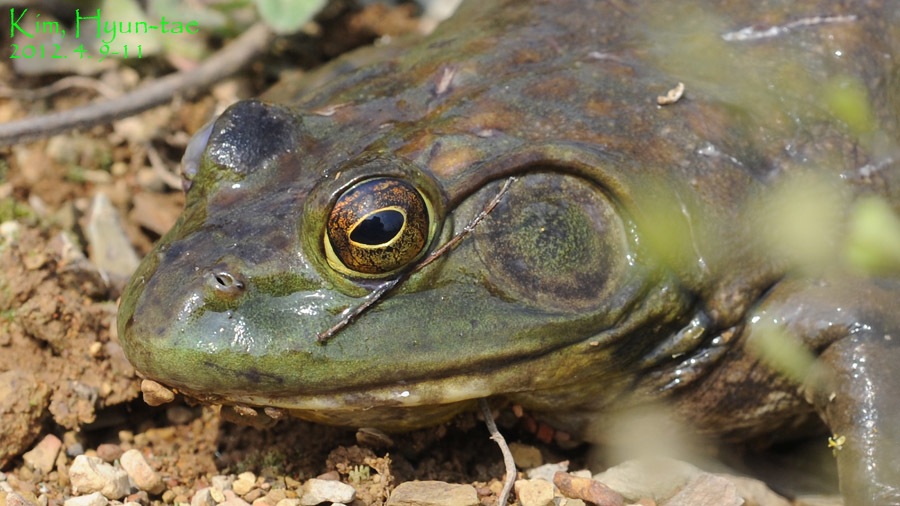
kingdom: Animalia
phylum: Chordata
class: Amphibia
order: Anura
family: Ranidae
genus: Lithobates
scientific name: Lithobates catesbeianus
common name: American bullfrog
